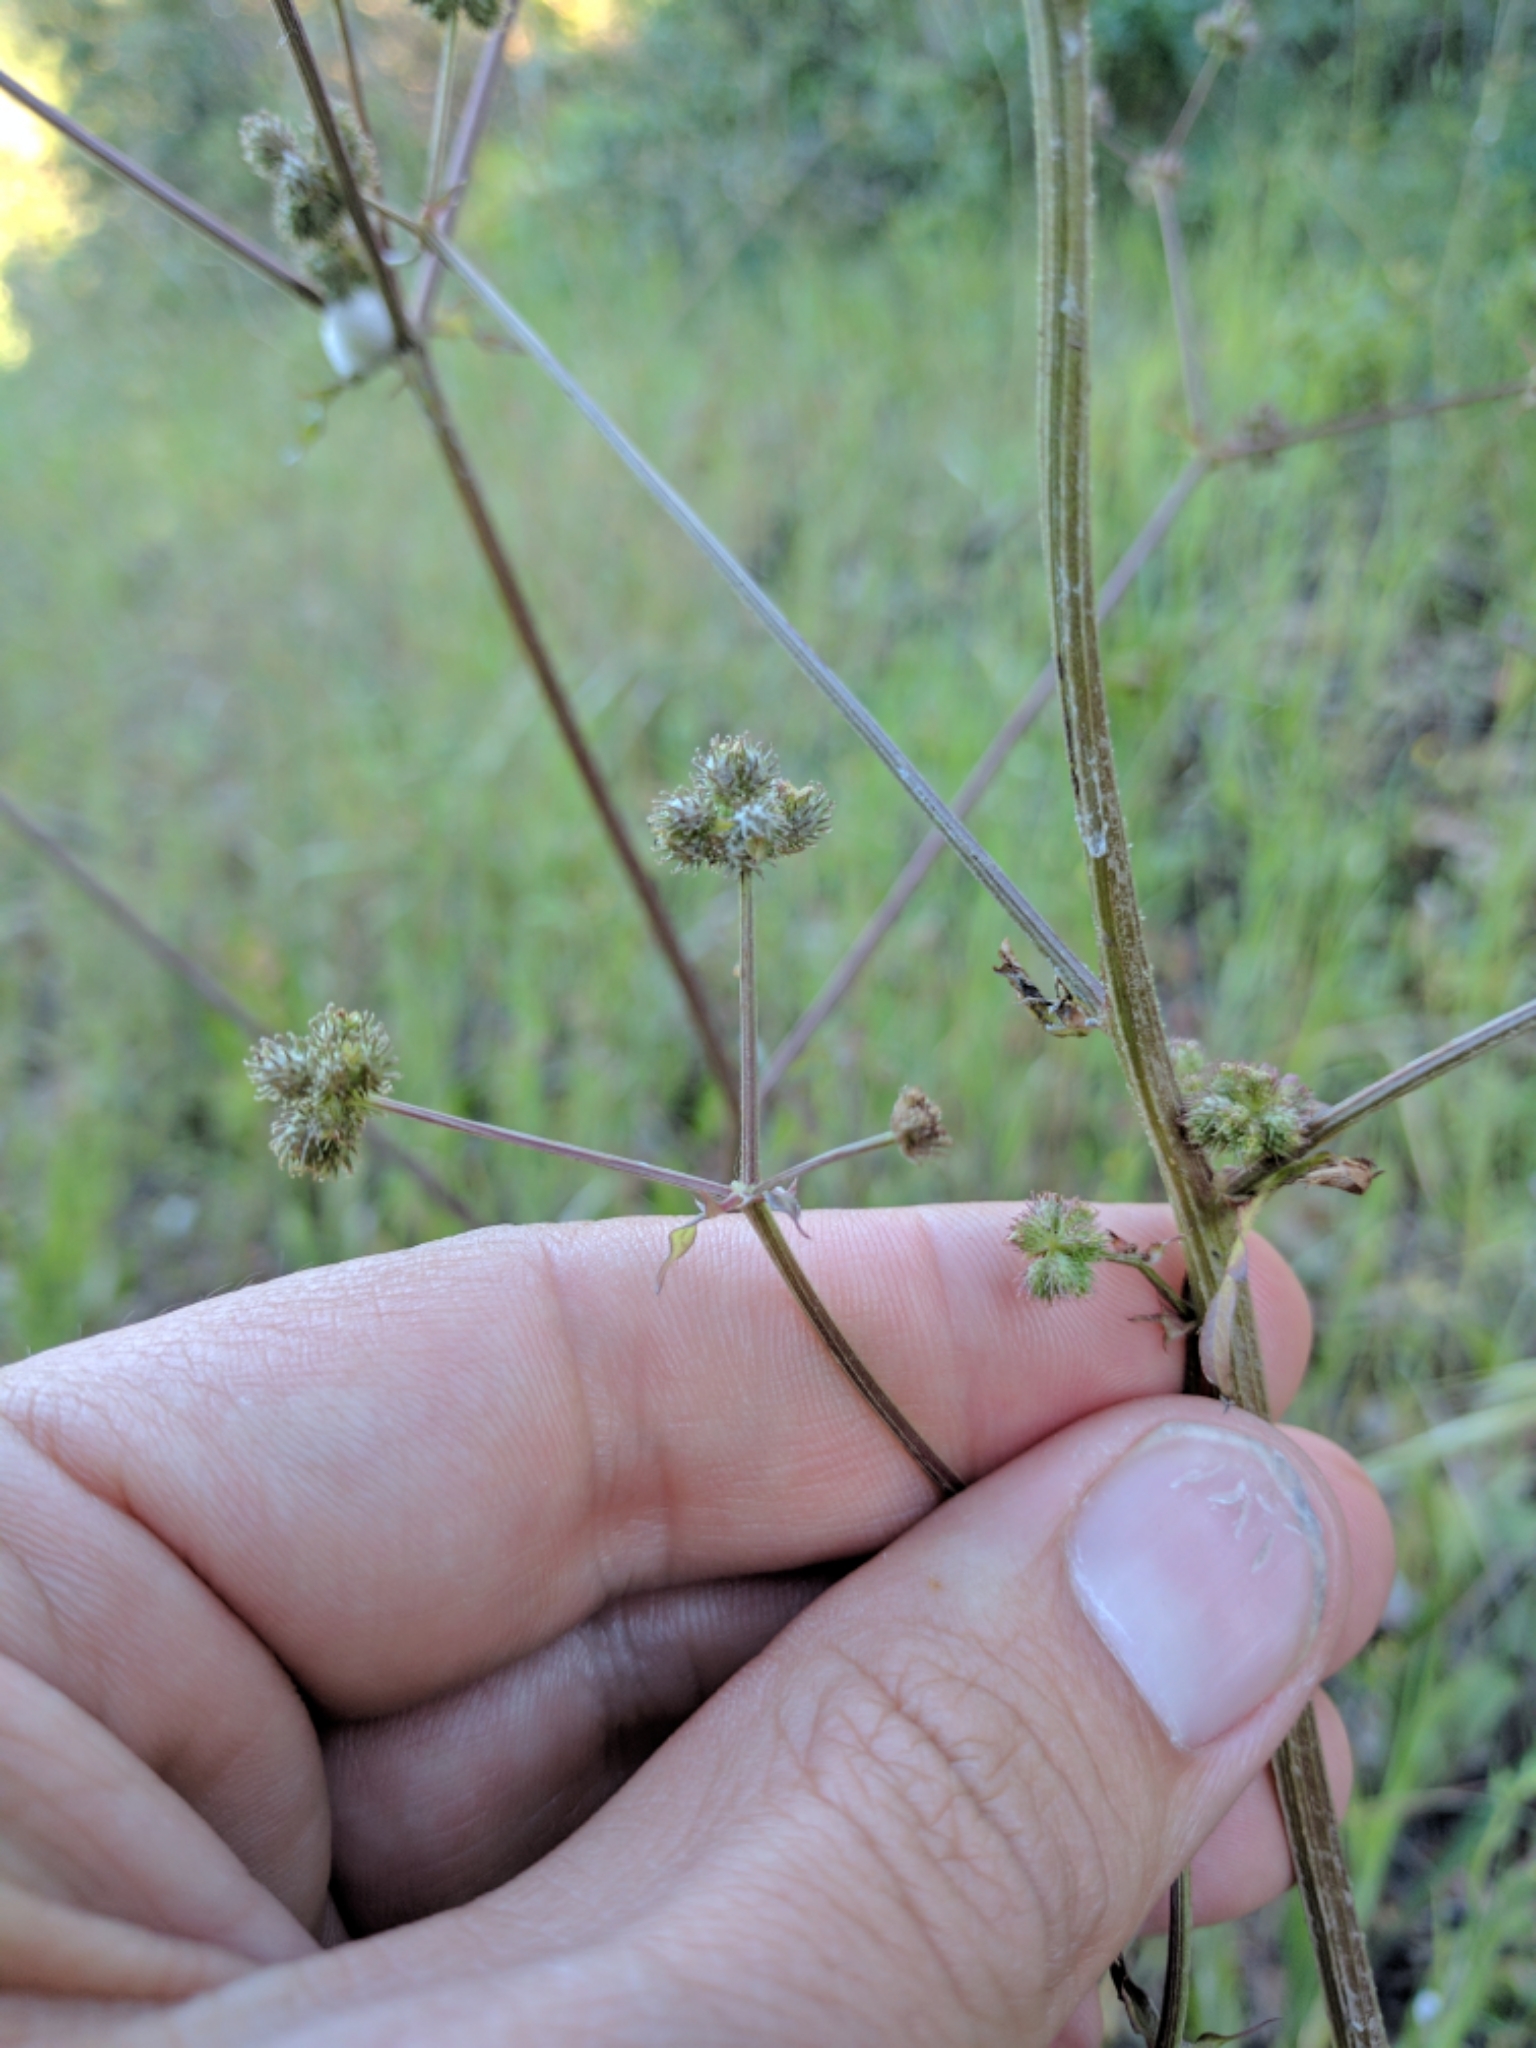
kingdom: Plantae
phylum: Tracheophyta
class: Magnoliopsida
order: Apiales
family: Apiaceae
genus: Sanicula
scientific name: Sanicula crassicaulis
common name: Western snakeroot
